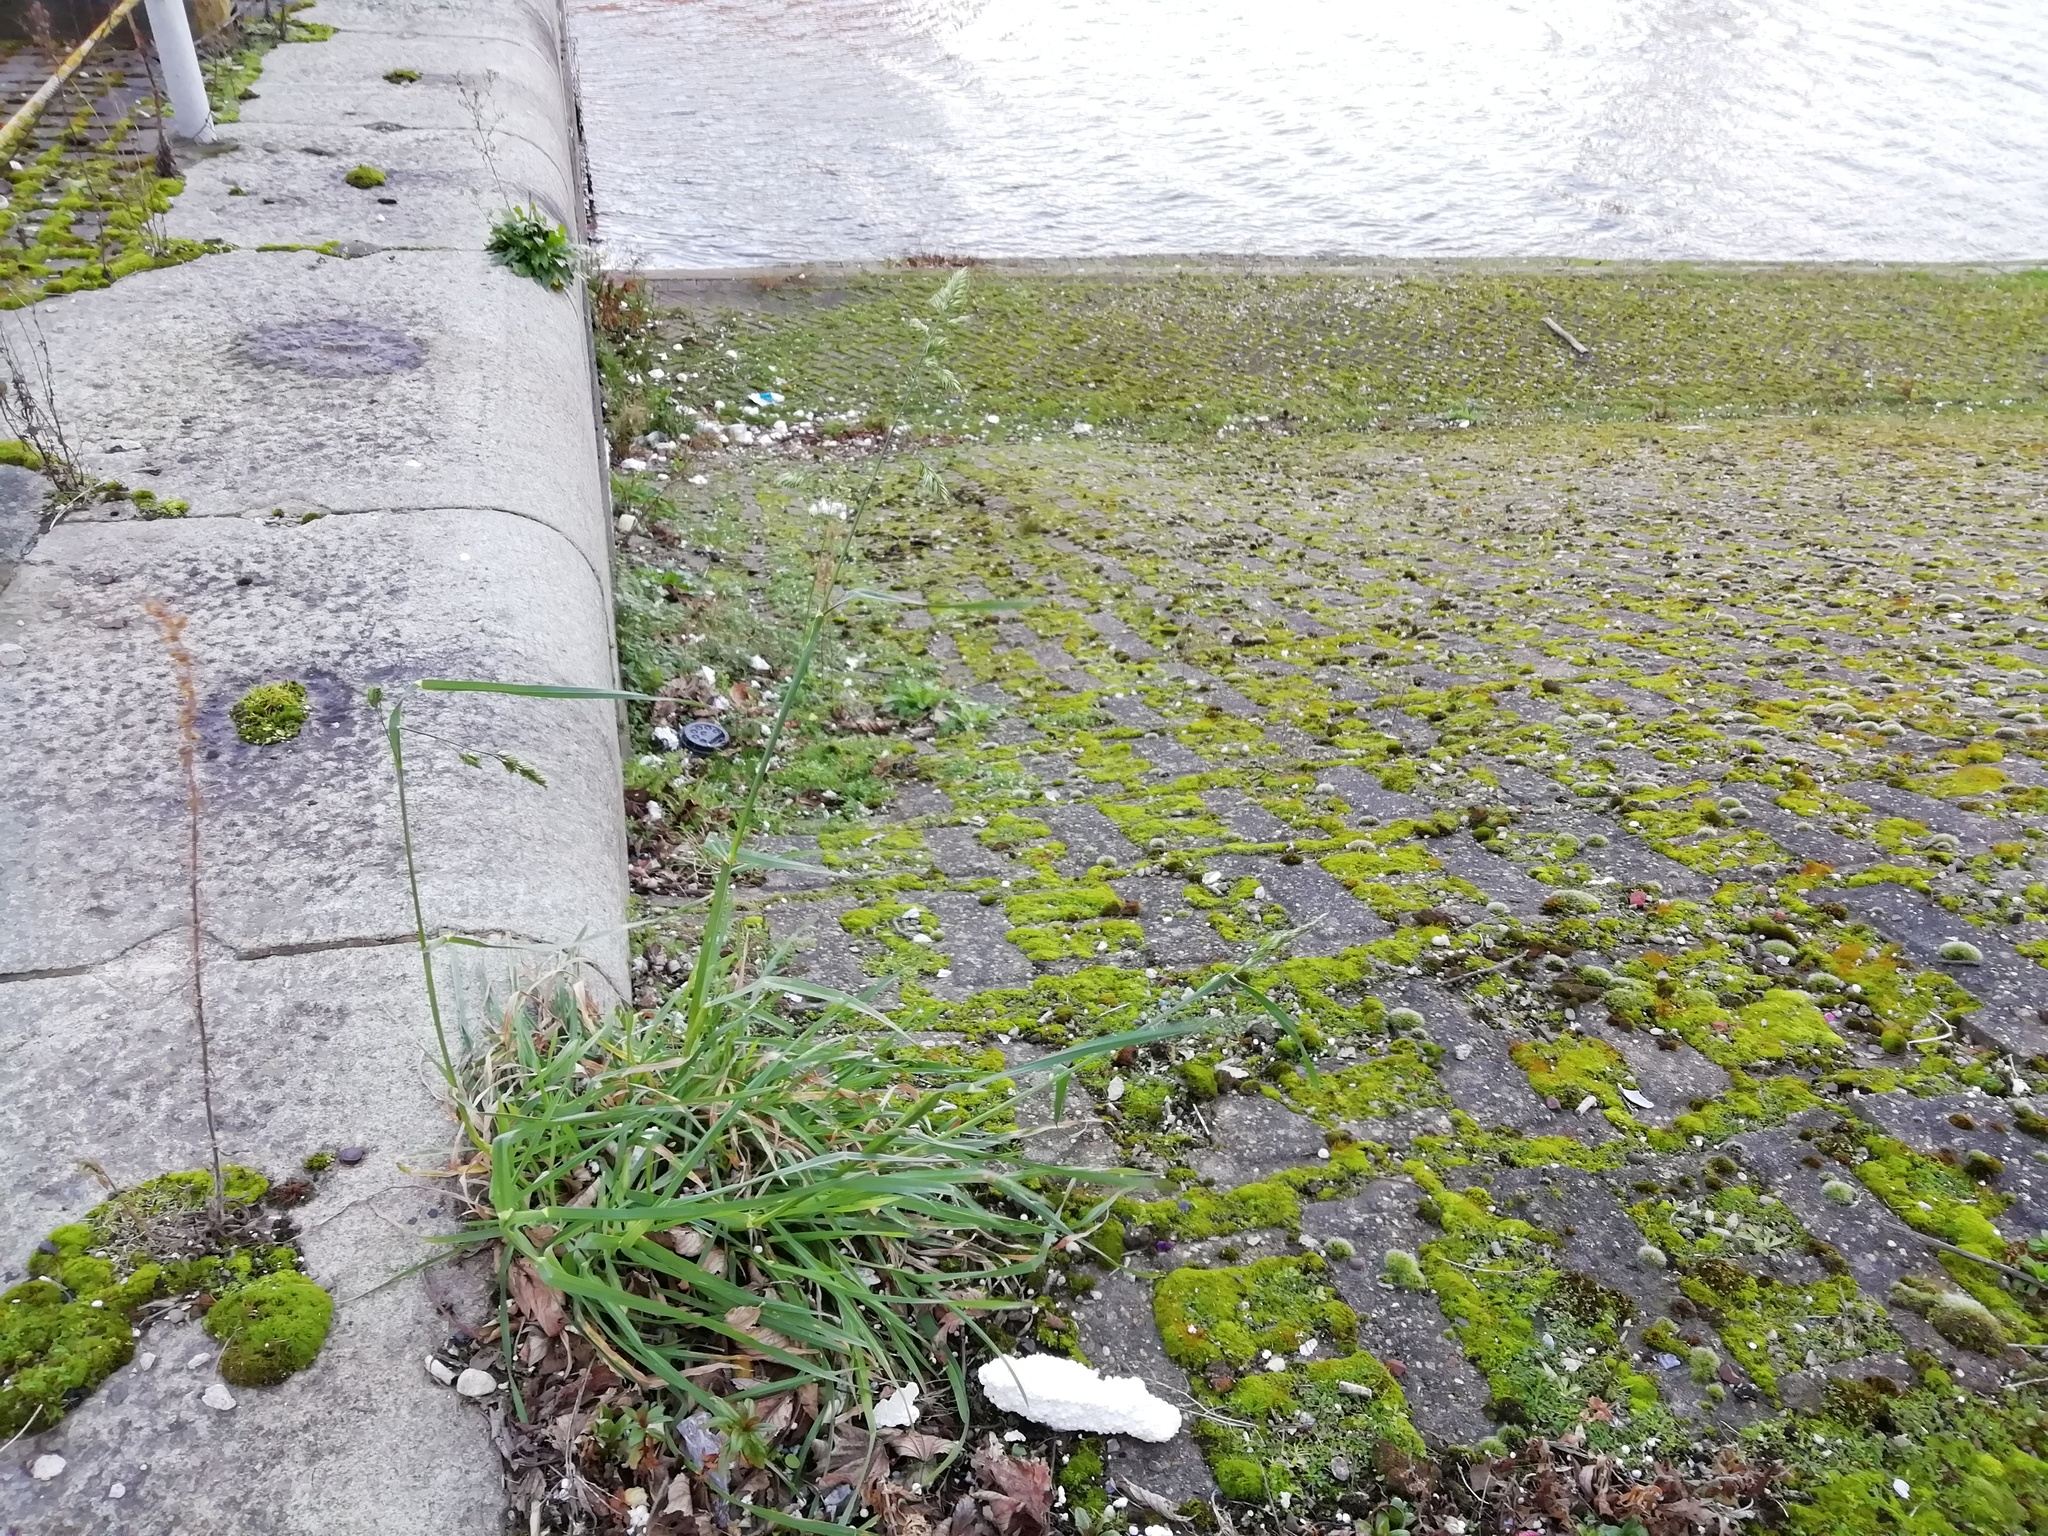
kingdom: Plantae
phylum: Tracheophyta
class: Liliopsida
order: Poales
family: Poaceae
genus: Dactylis
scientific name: Dactylis glomerata
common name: Orchardgrass
